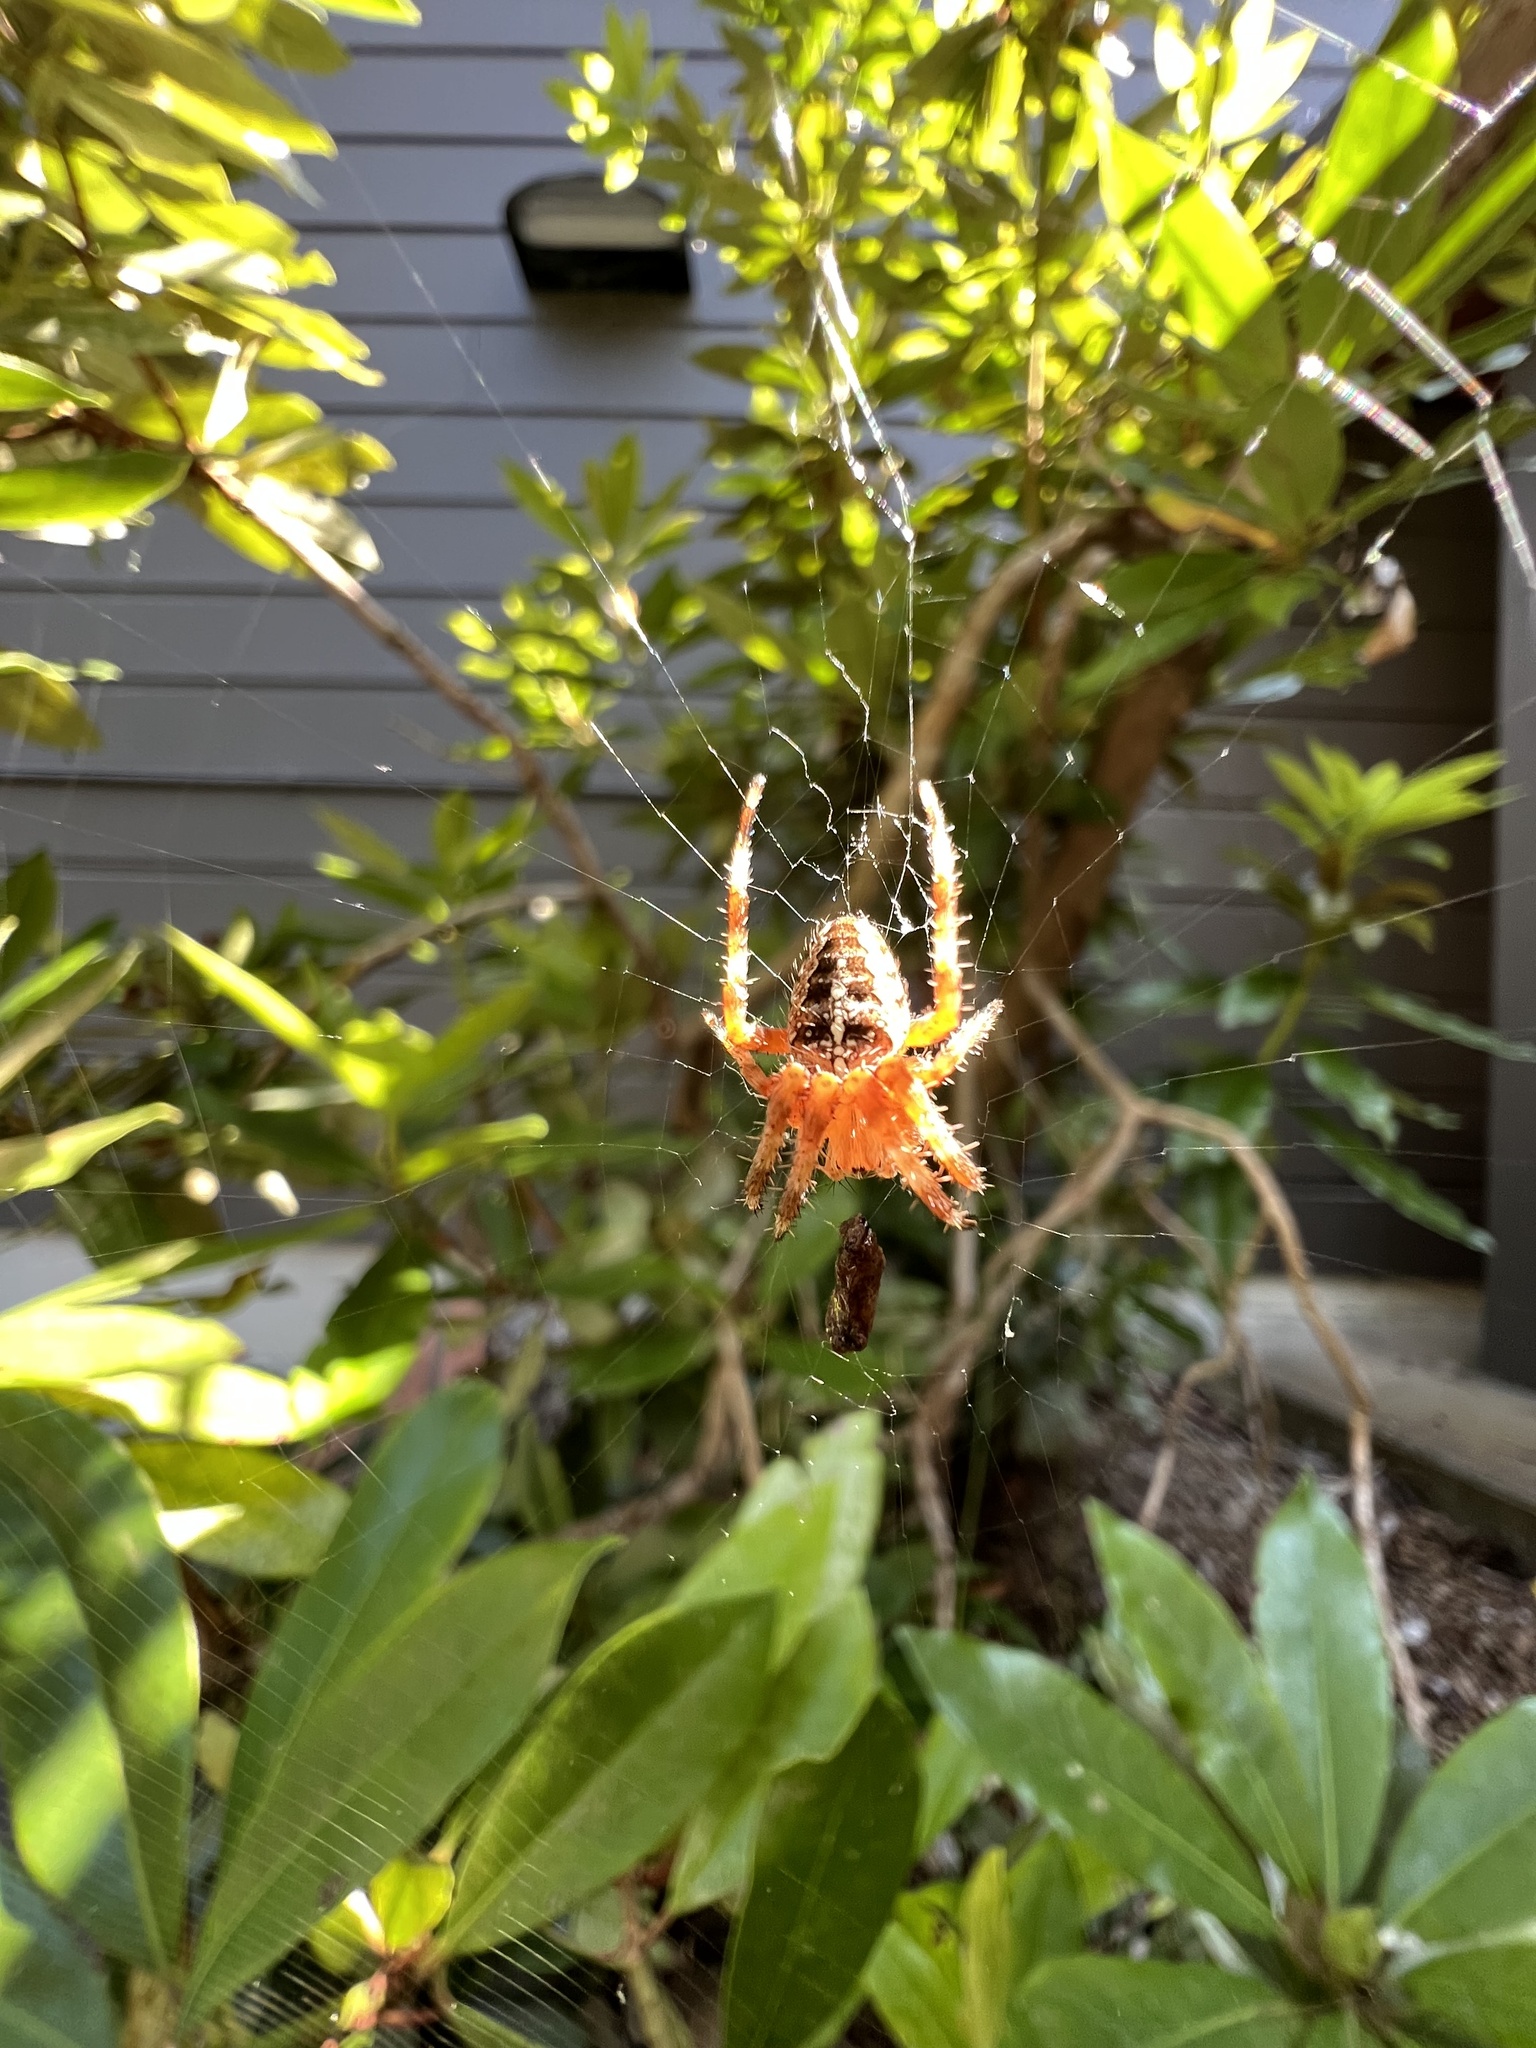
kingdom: Animalia
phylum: Arthropoda
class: Arachnida
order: Araneae
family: Araneidae
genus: Araneus
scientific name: Araneus diadematus
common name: Cross orbweaver
